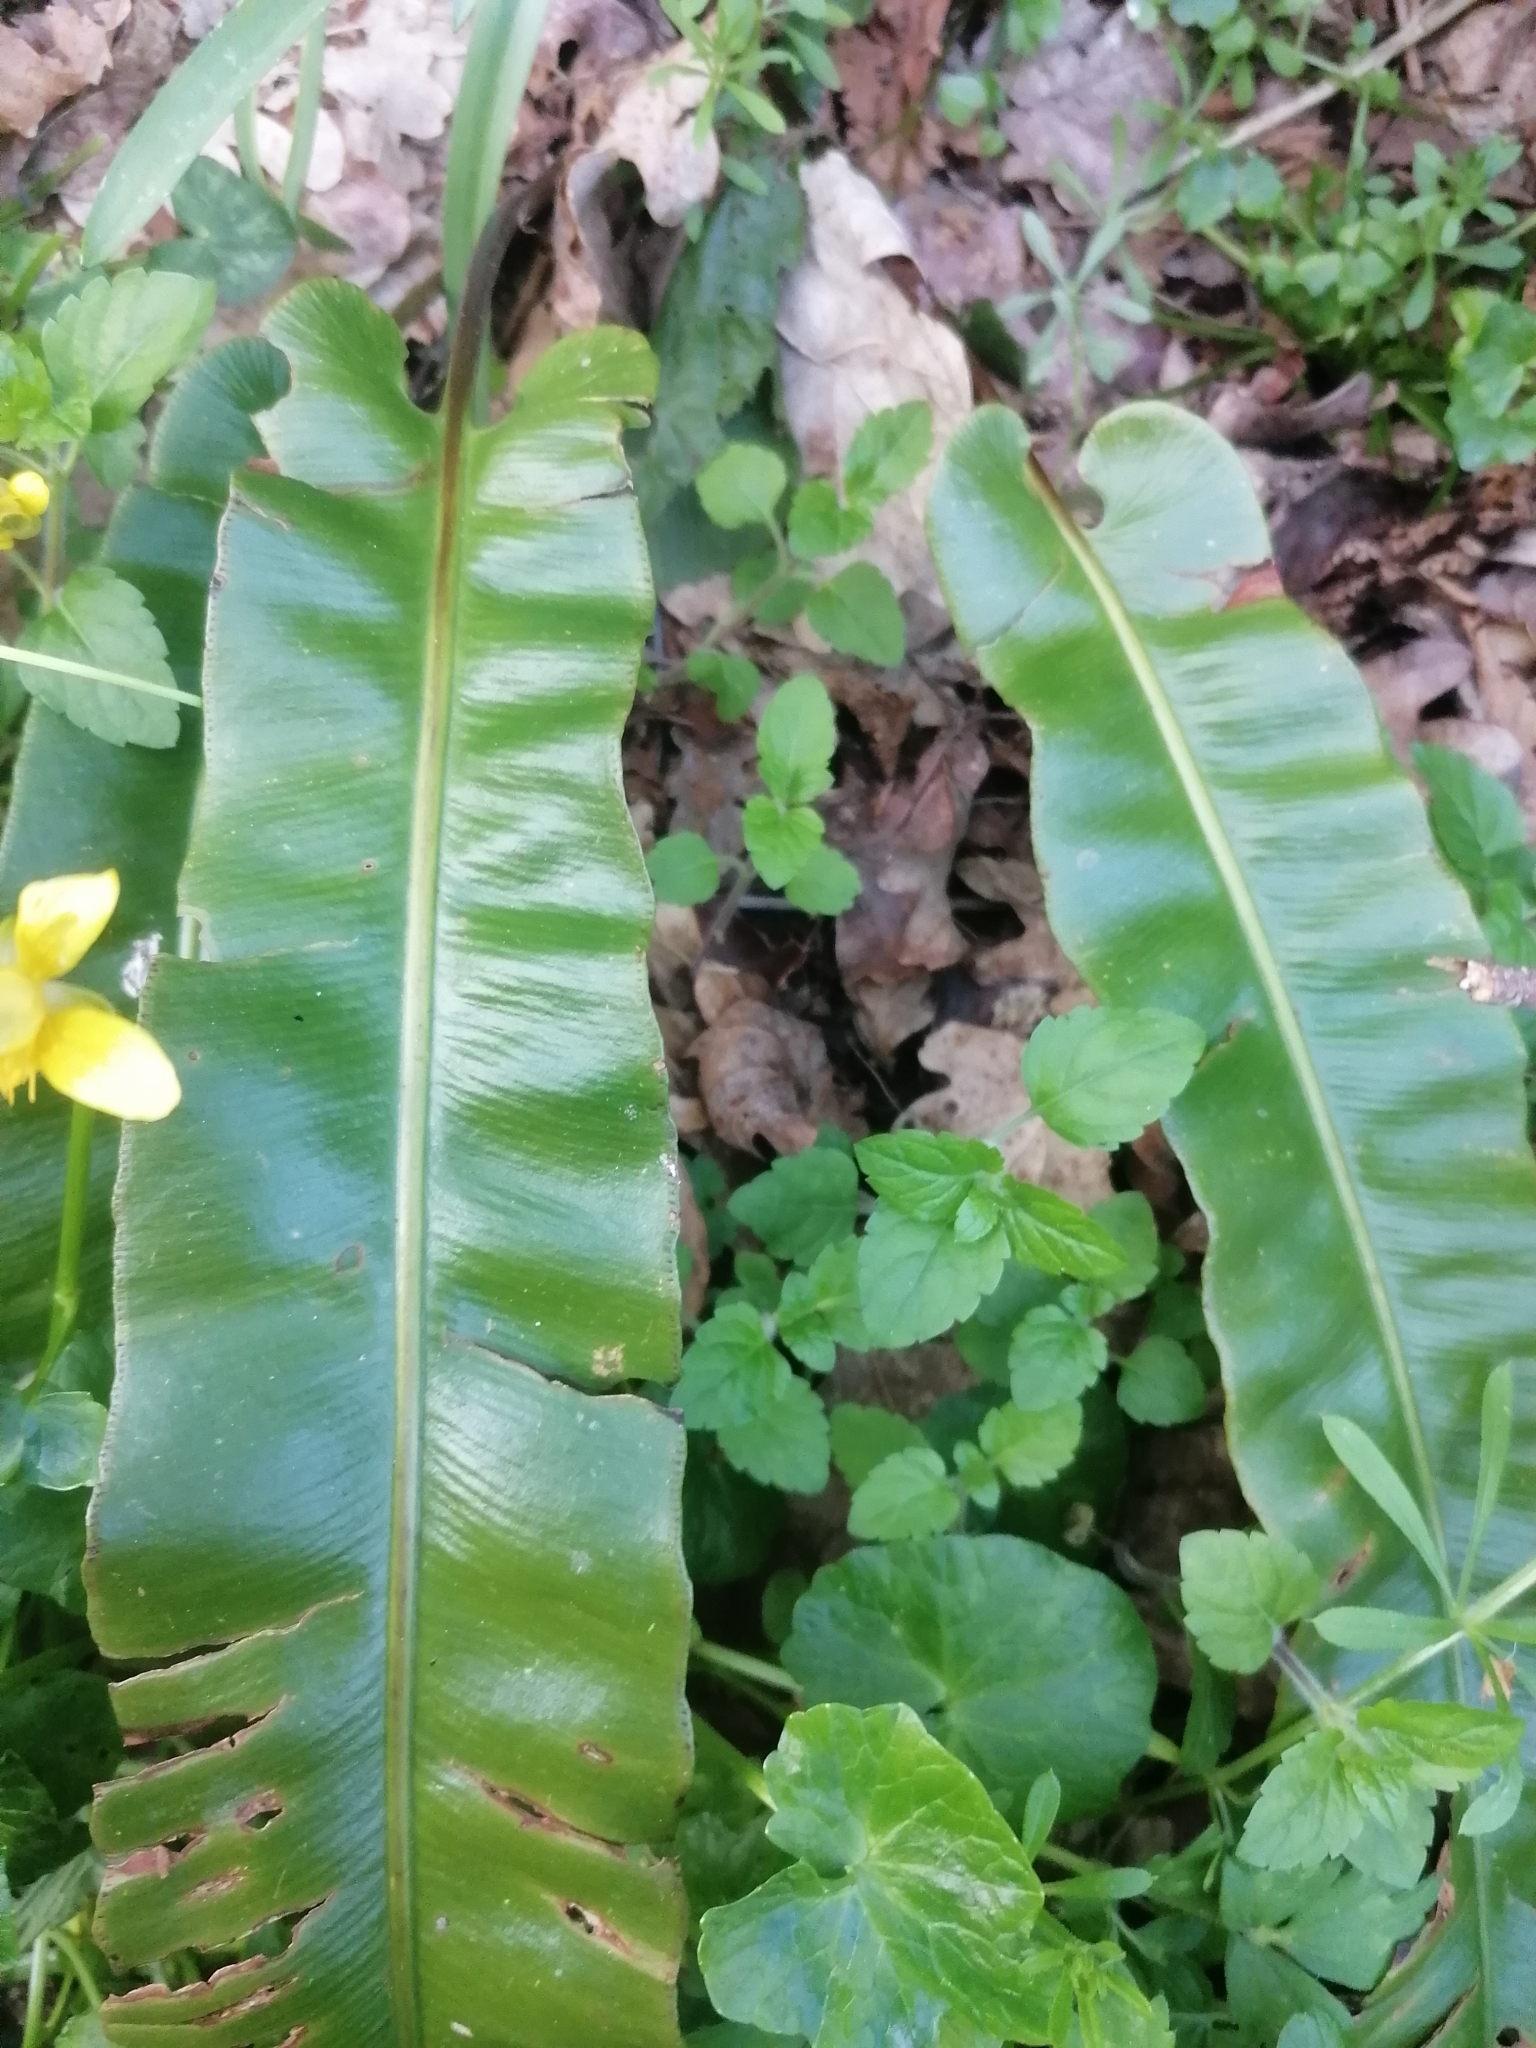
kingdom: Plantae
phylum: Tracheophyta
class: Polypodiopsida
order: Polypodiales
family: Aspleniaceae
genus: Asplenium
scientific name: Asplenium scolopendrium
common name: Hart's-tongue fern
